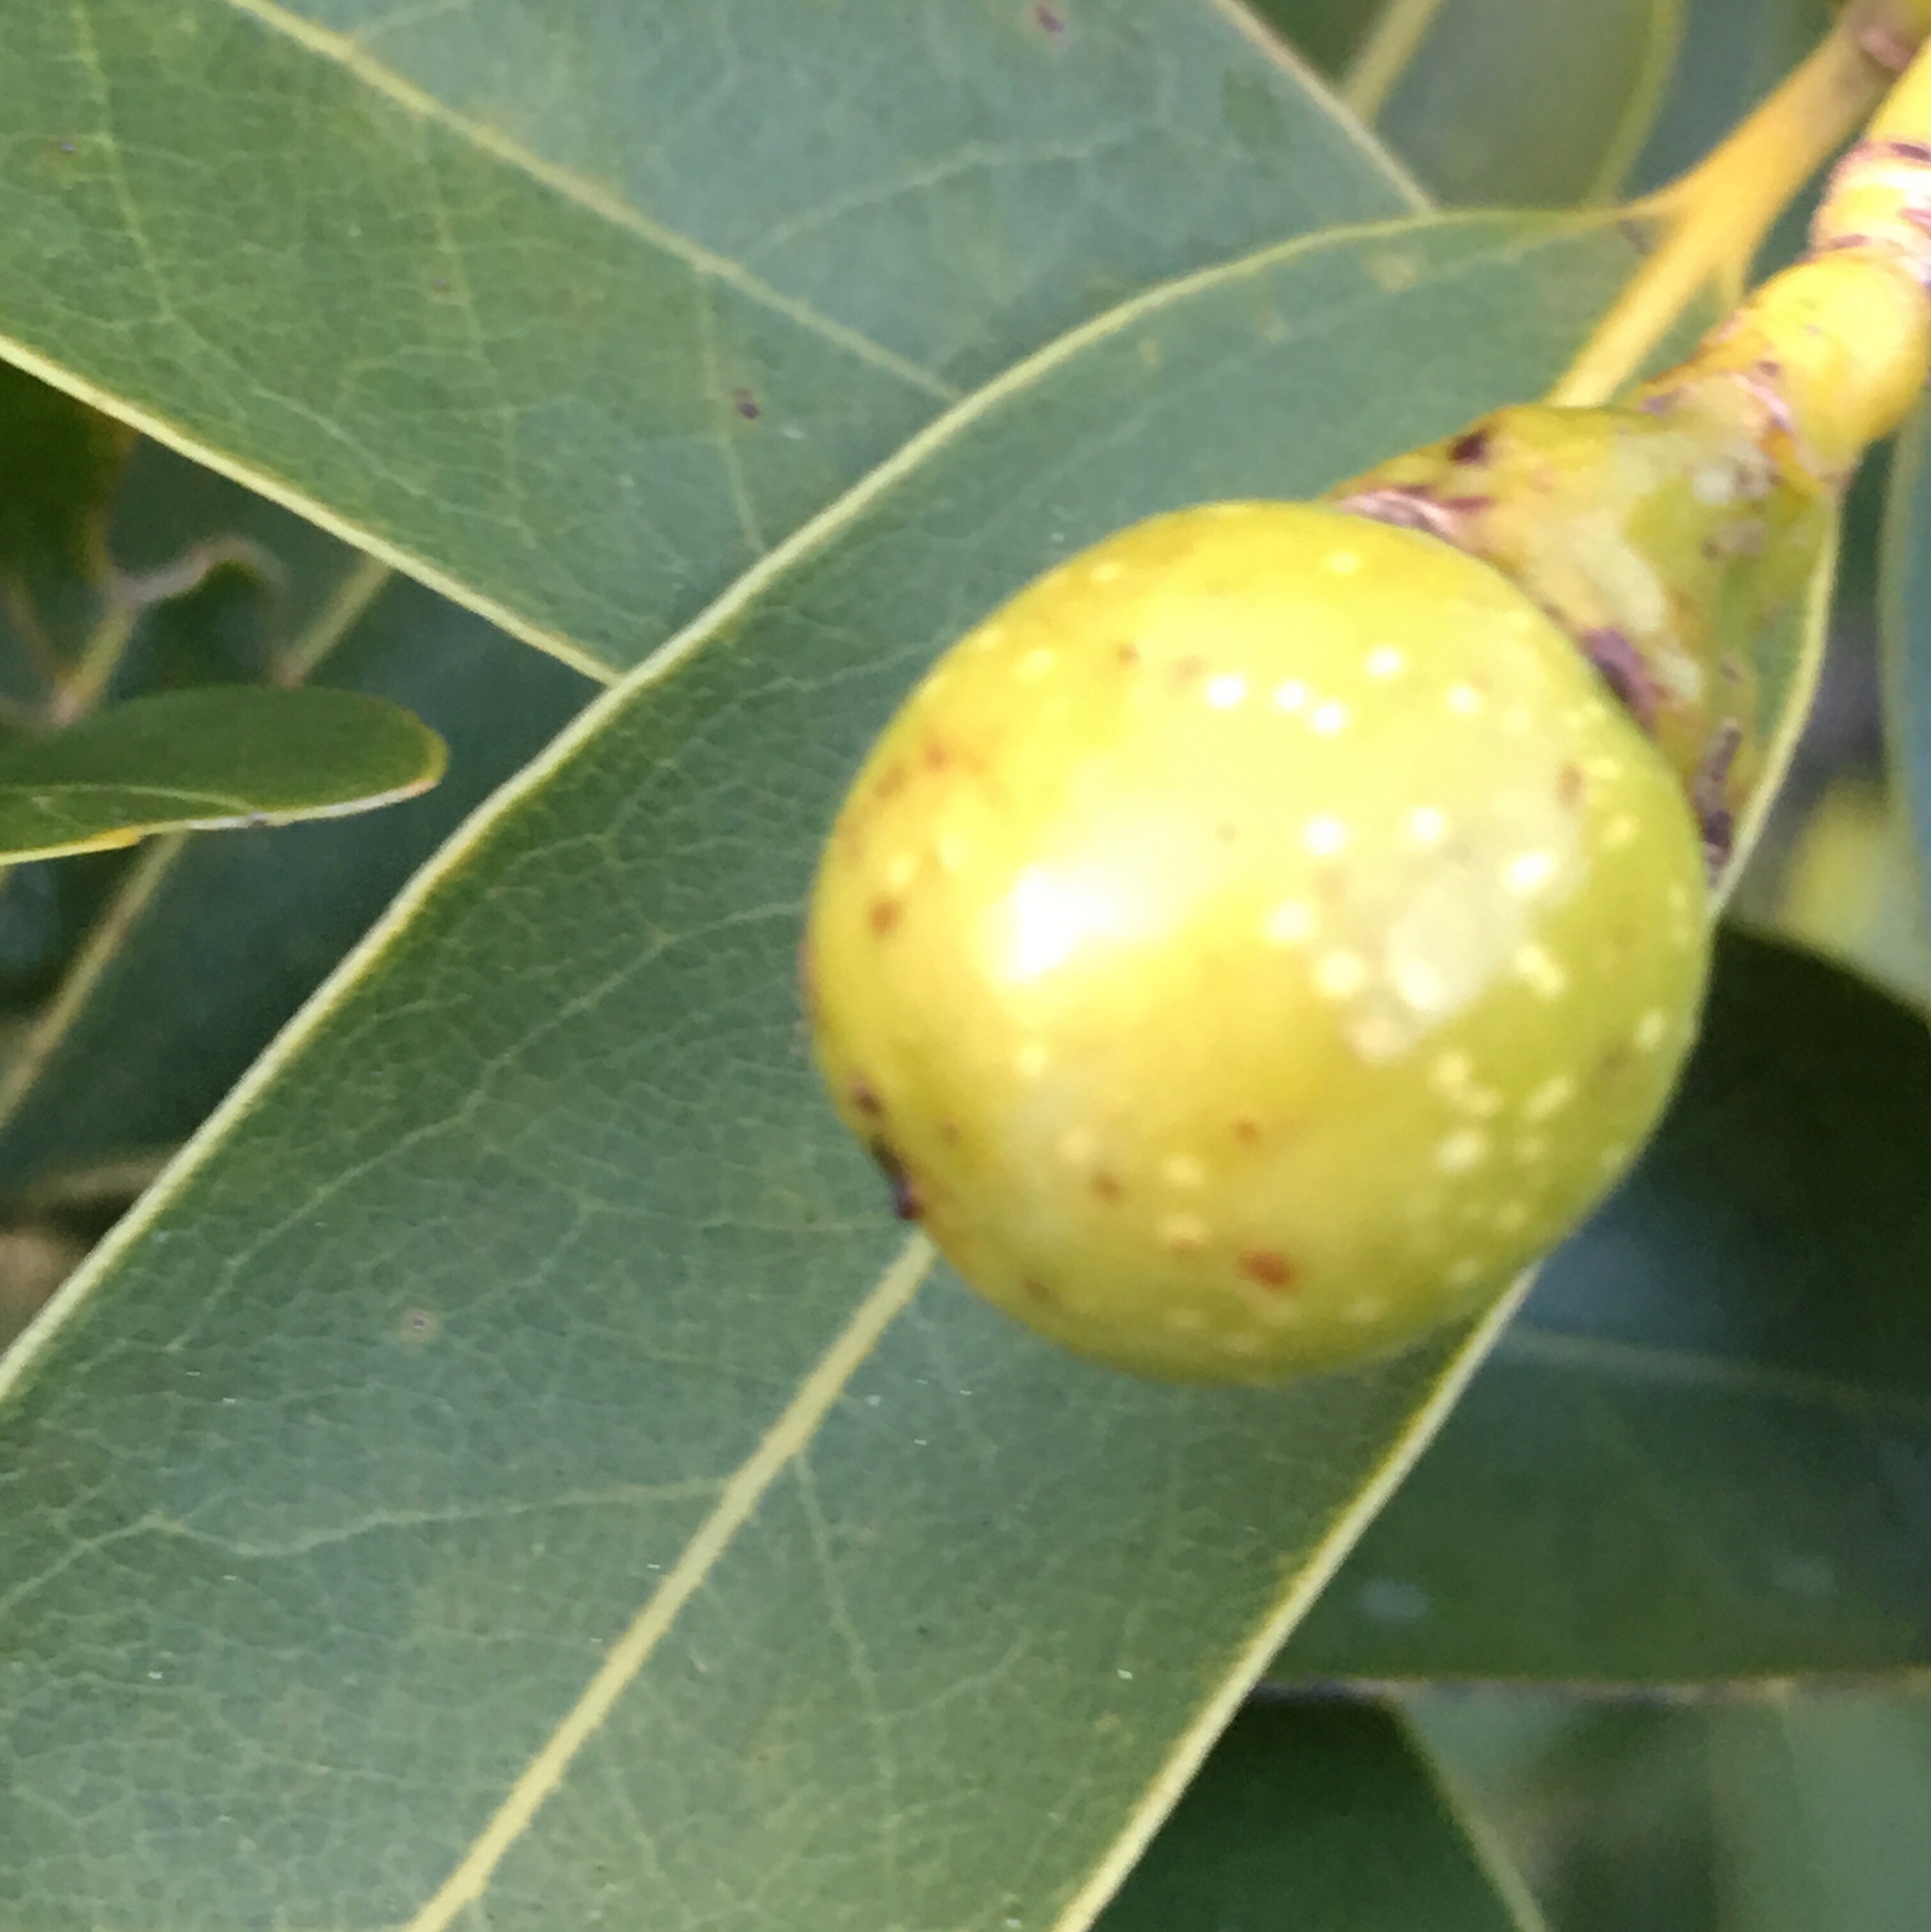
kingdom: Plantae
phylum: Tracheophyta
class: Magnoliopsida
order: Laurales
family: Lauraceae
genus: Umbellularia
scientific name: Umbellularia californica
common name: California bay
